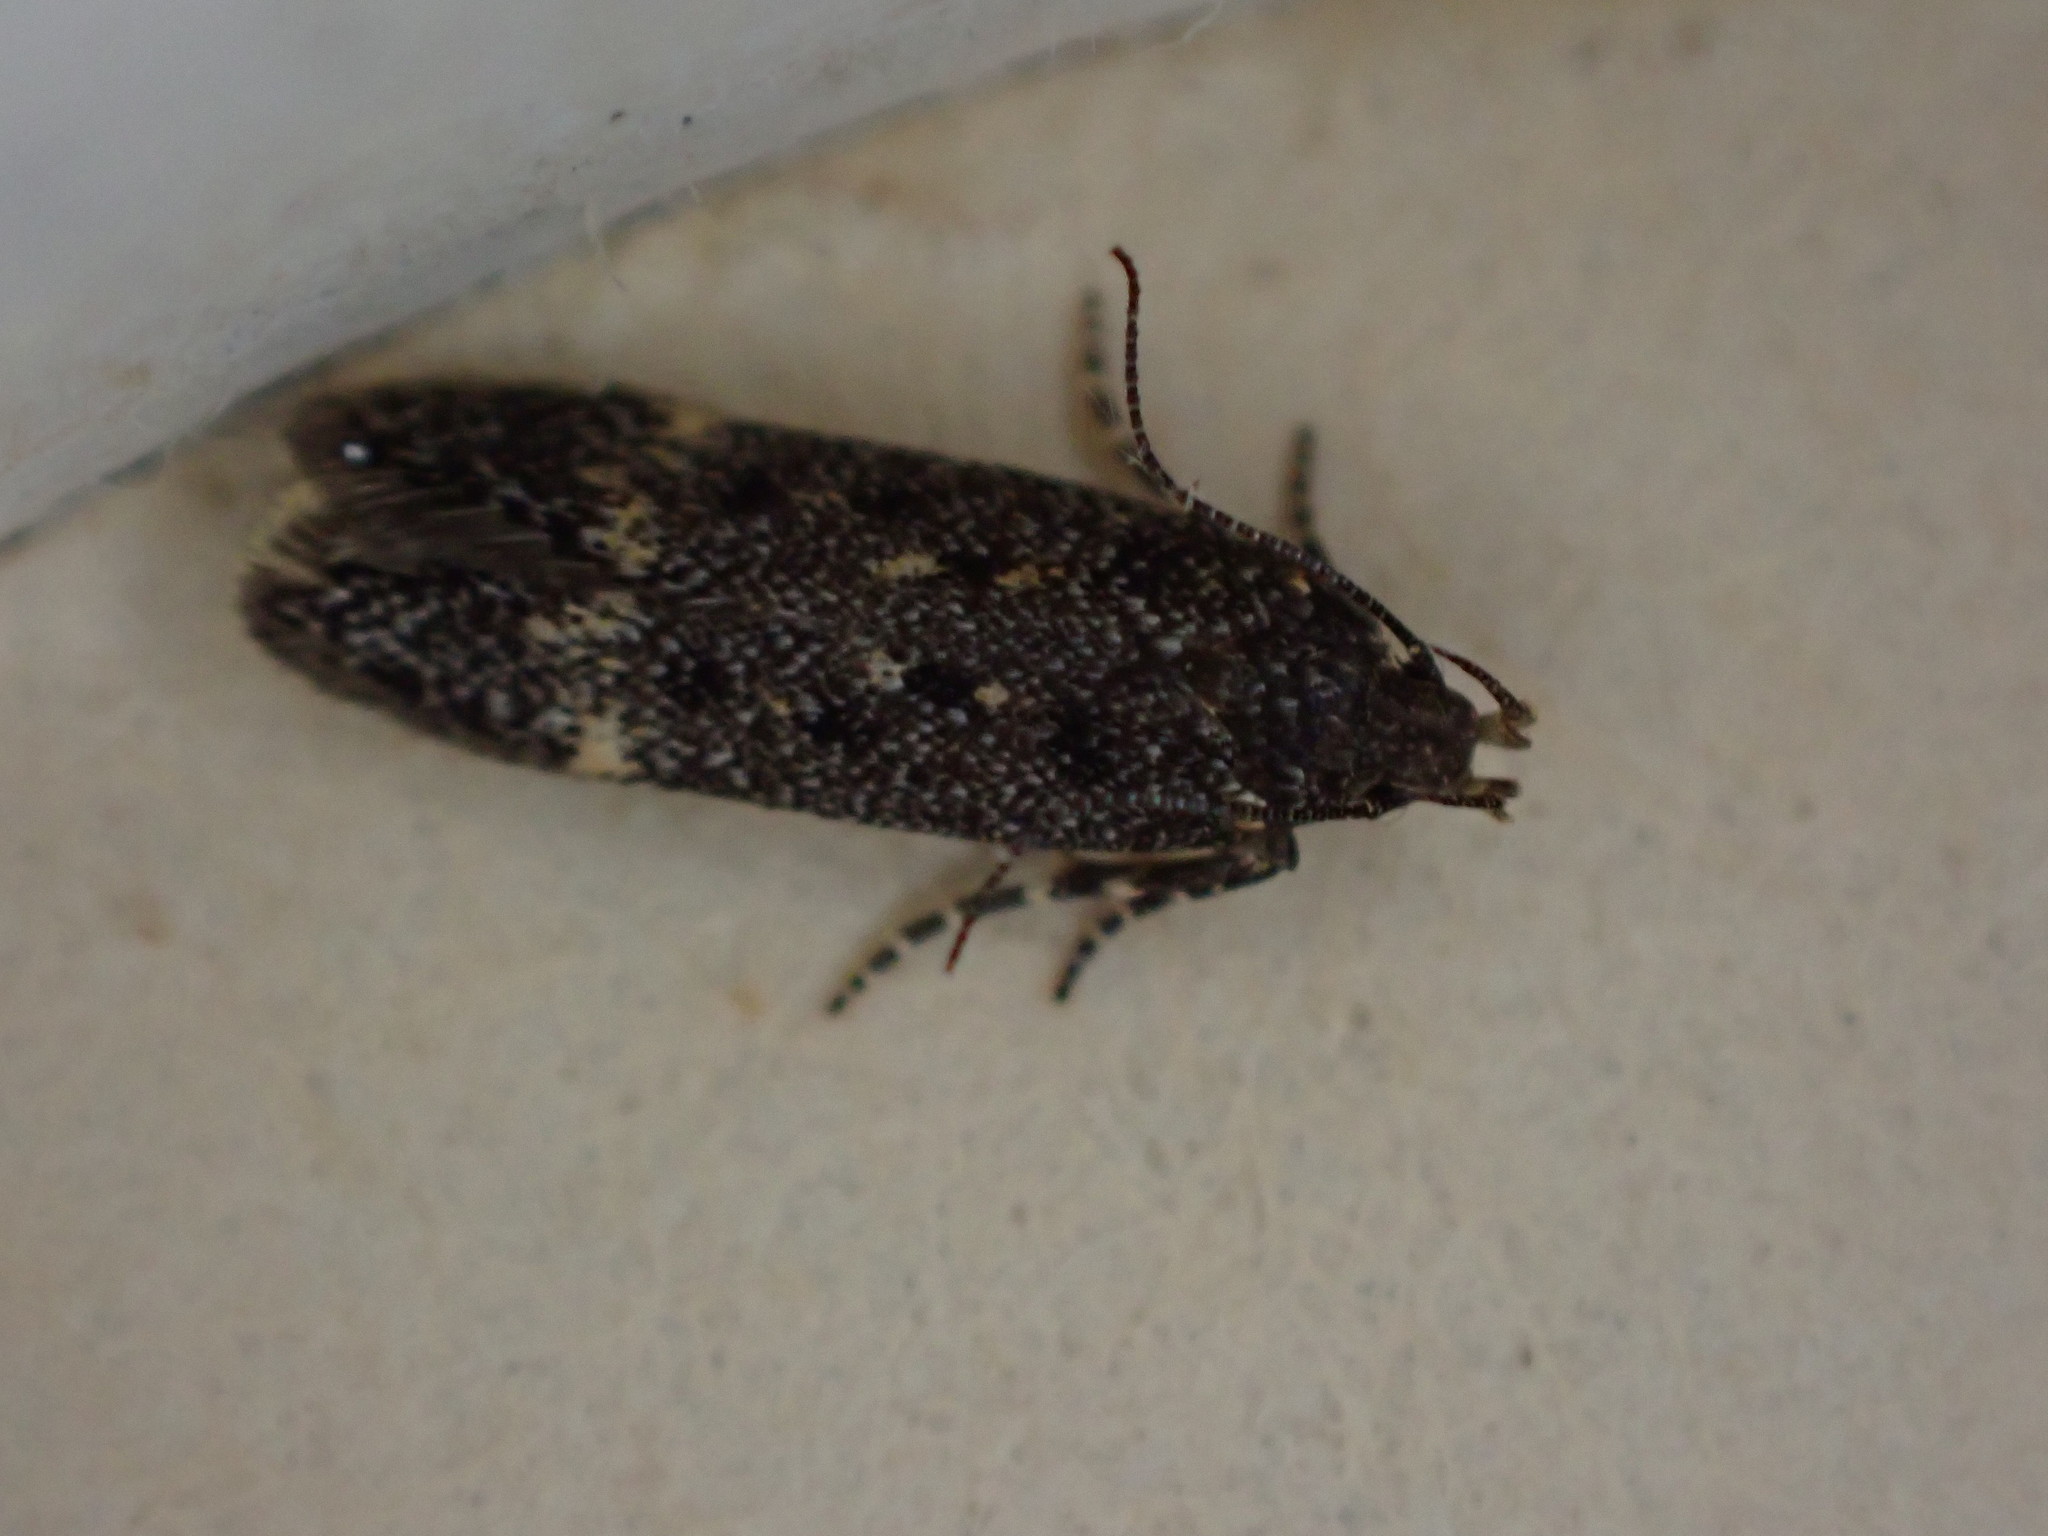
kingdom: Animalia
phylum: Arthropoda
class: Insecta
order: Lepidoptera
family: Gelechiidae
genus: Bryotropha
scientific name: Bryotropha affinis
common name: Dark groundling
